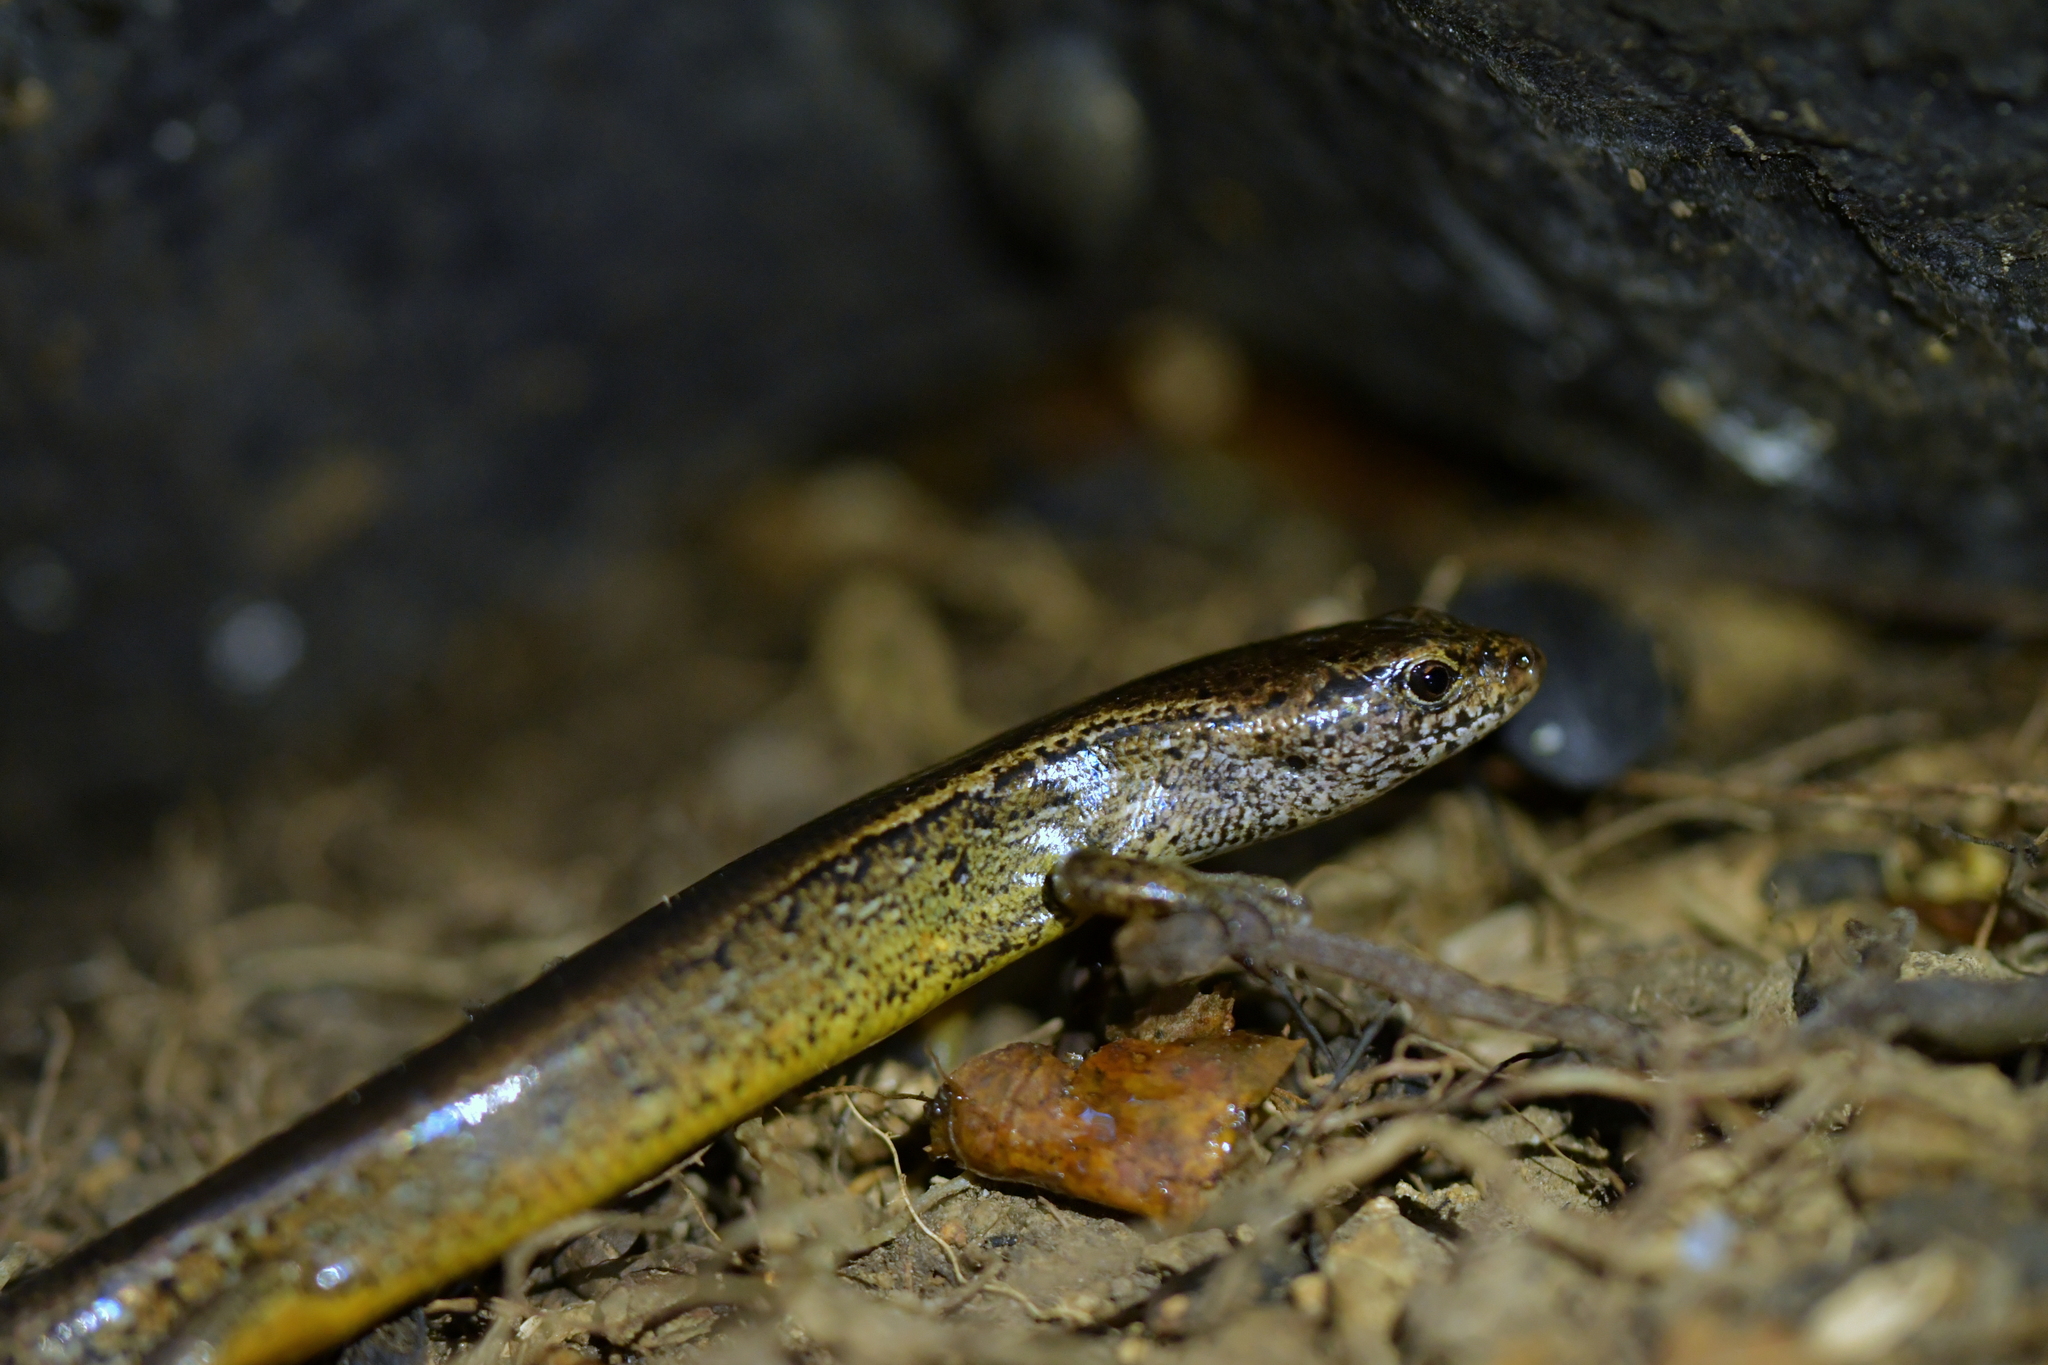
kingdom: Animalia
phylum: Chordata
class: Squamata
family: Scincidae
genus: Oligosoma
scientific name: Oligosoma aeneum
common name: Copper skink
